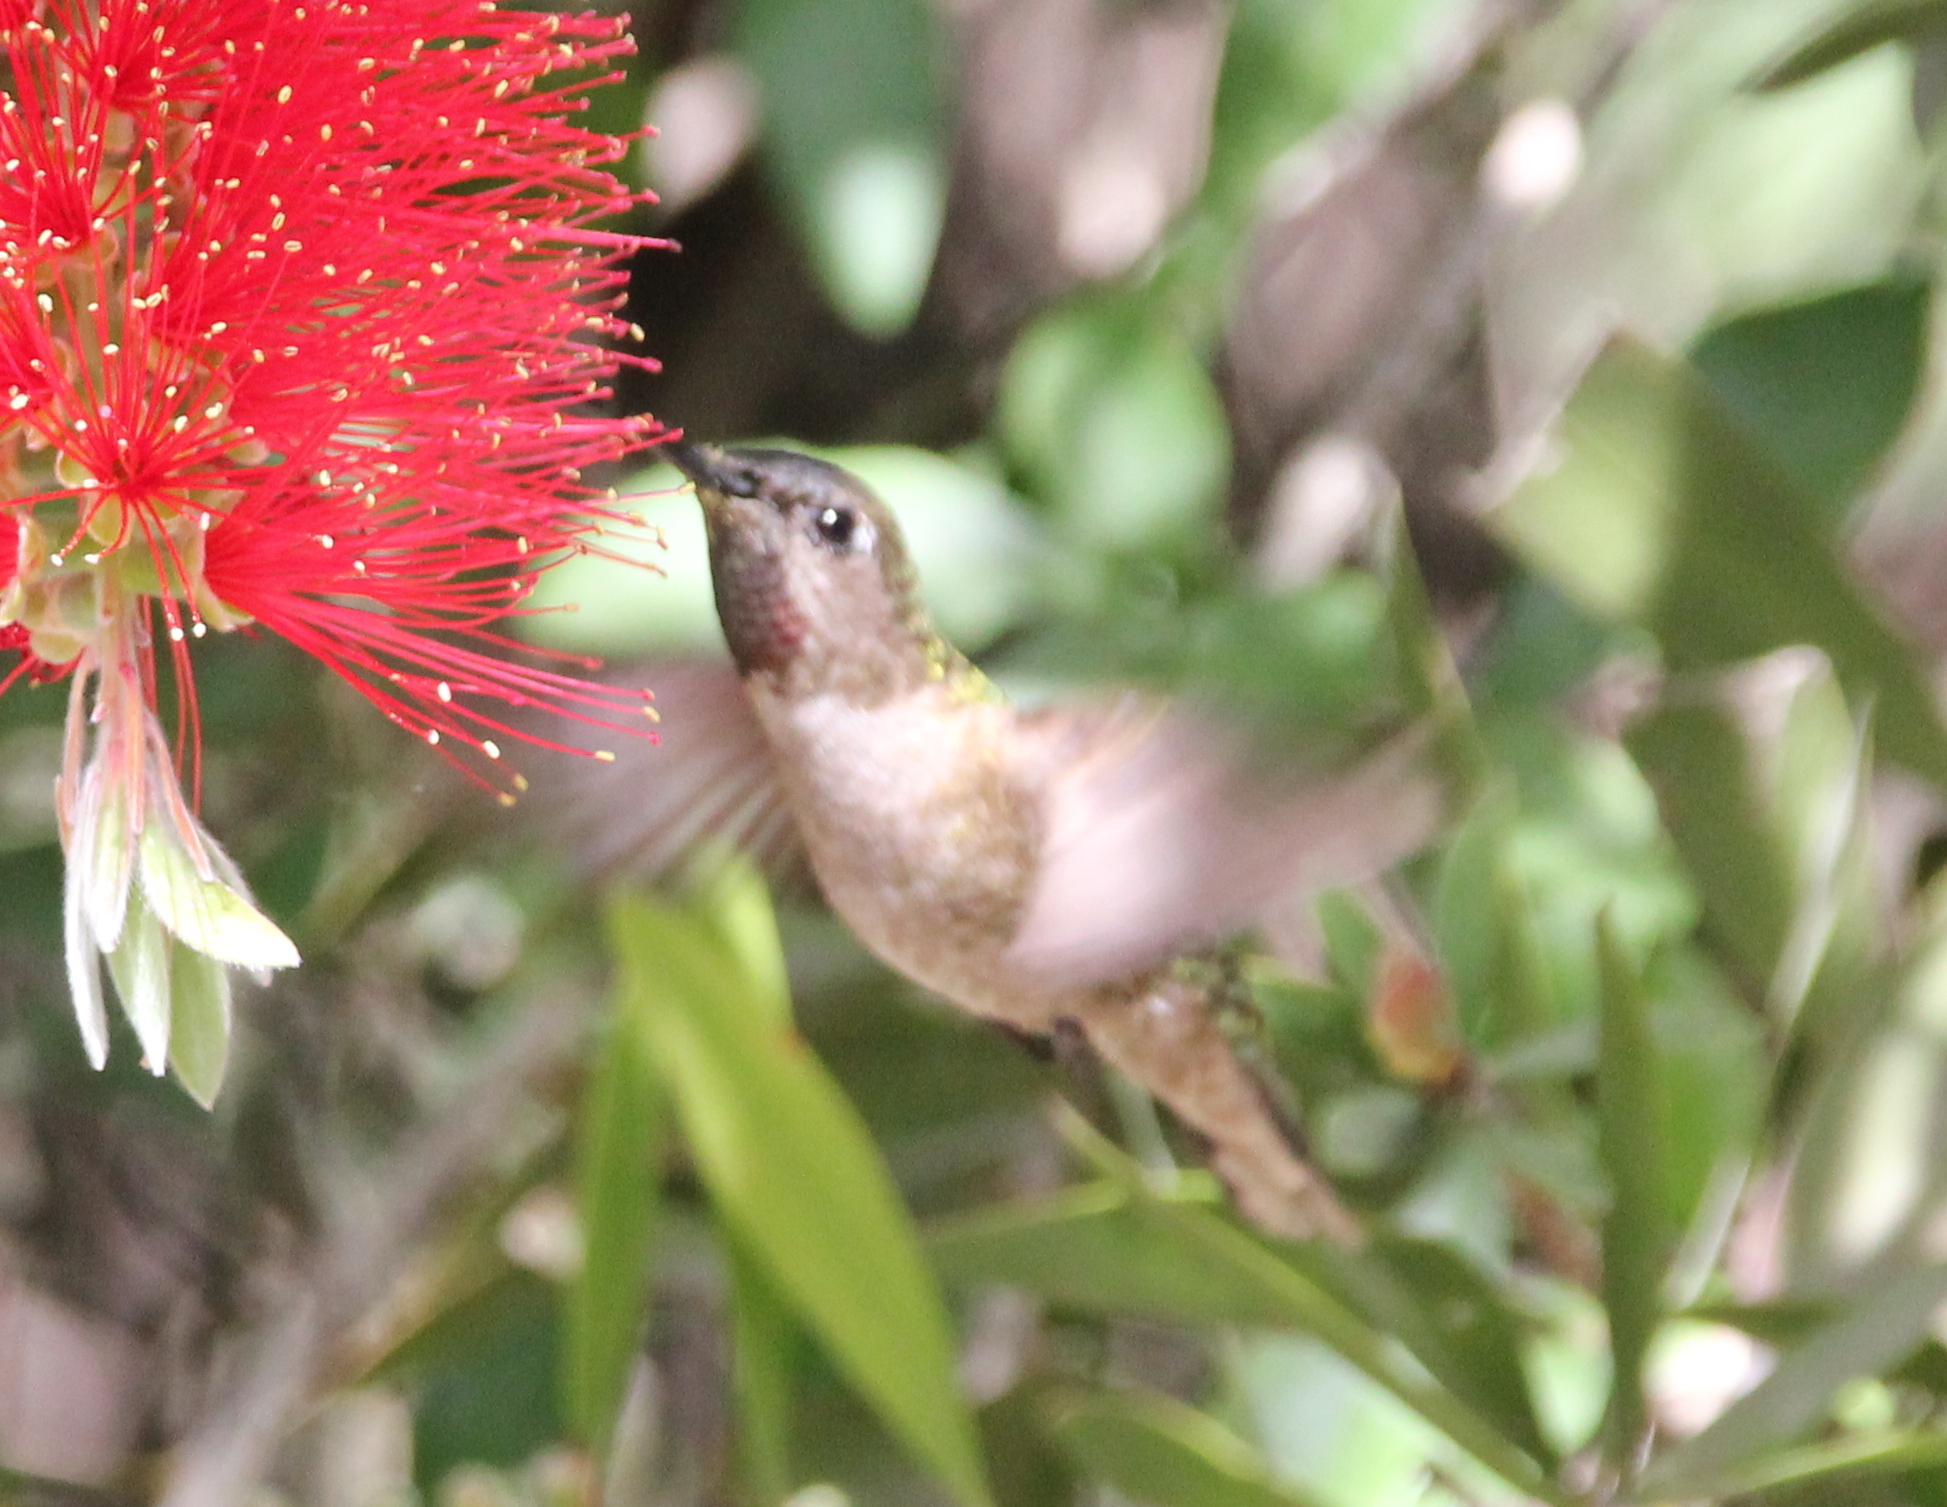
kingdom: Animalia
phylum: Chordata
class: Aves
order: Apodiformes
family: Trochilidae
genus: Calypte
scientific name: Calypte anna
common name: Anna's hummingbird
